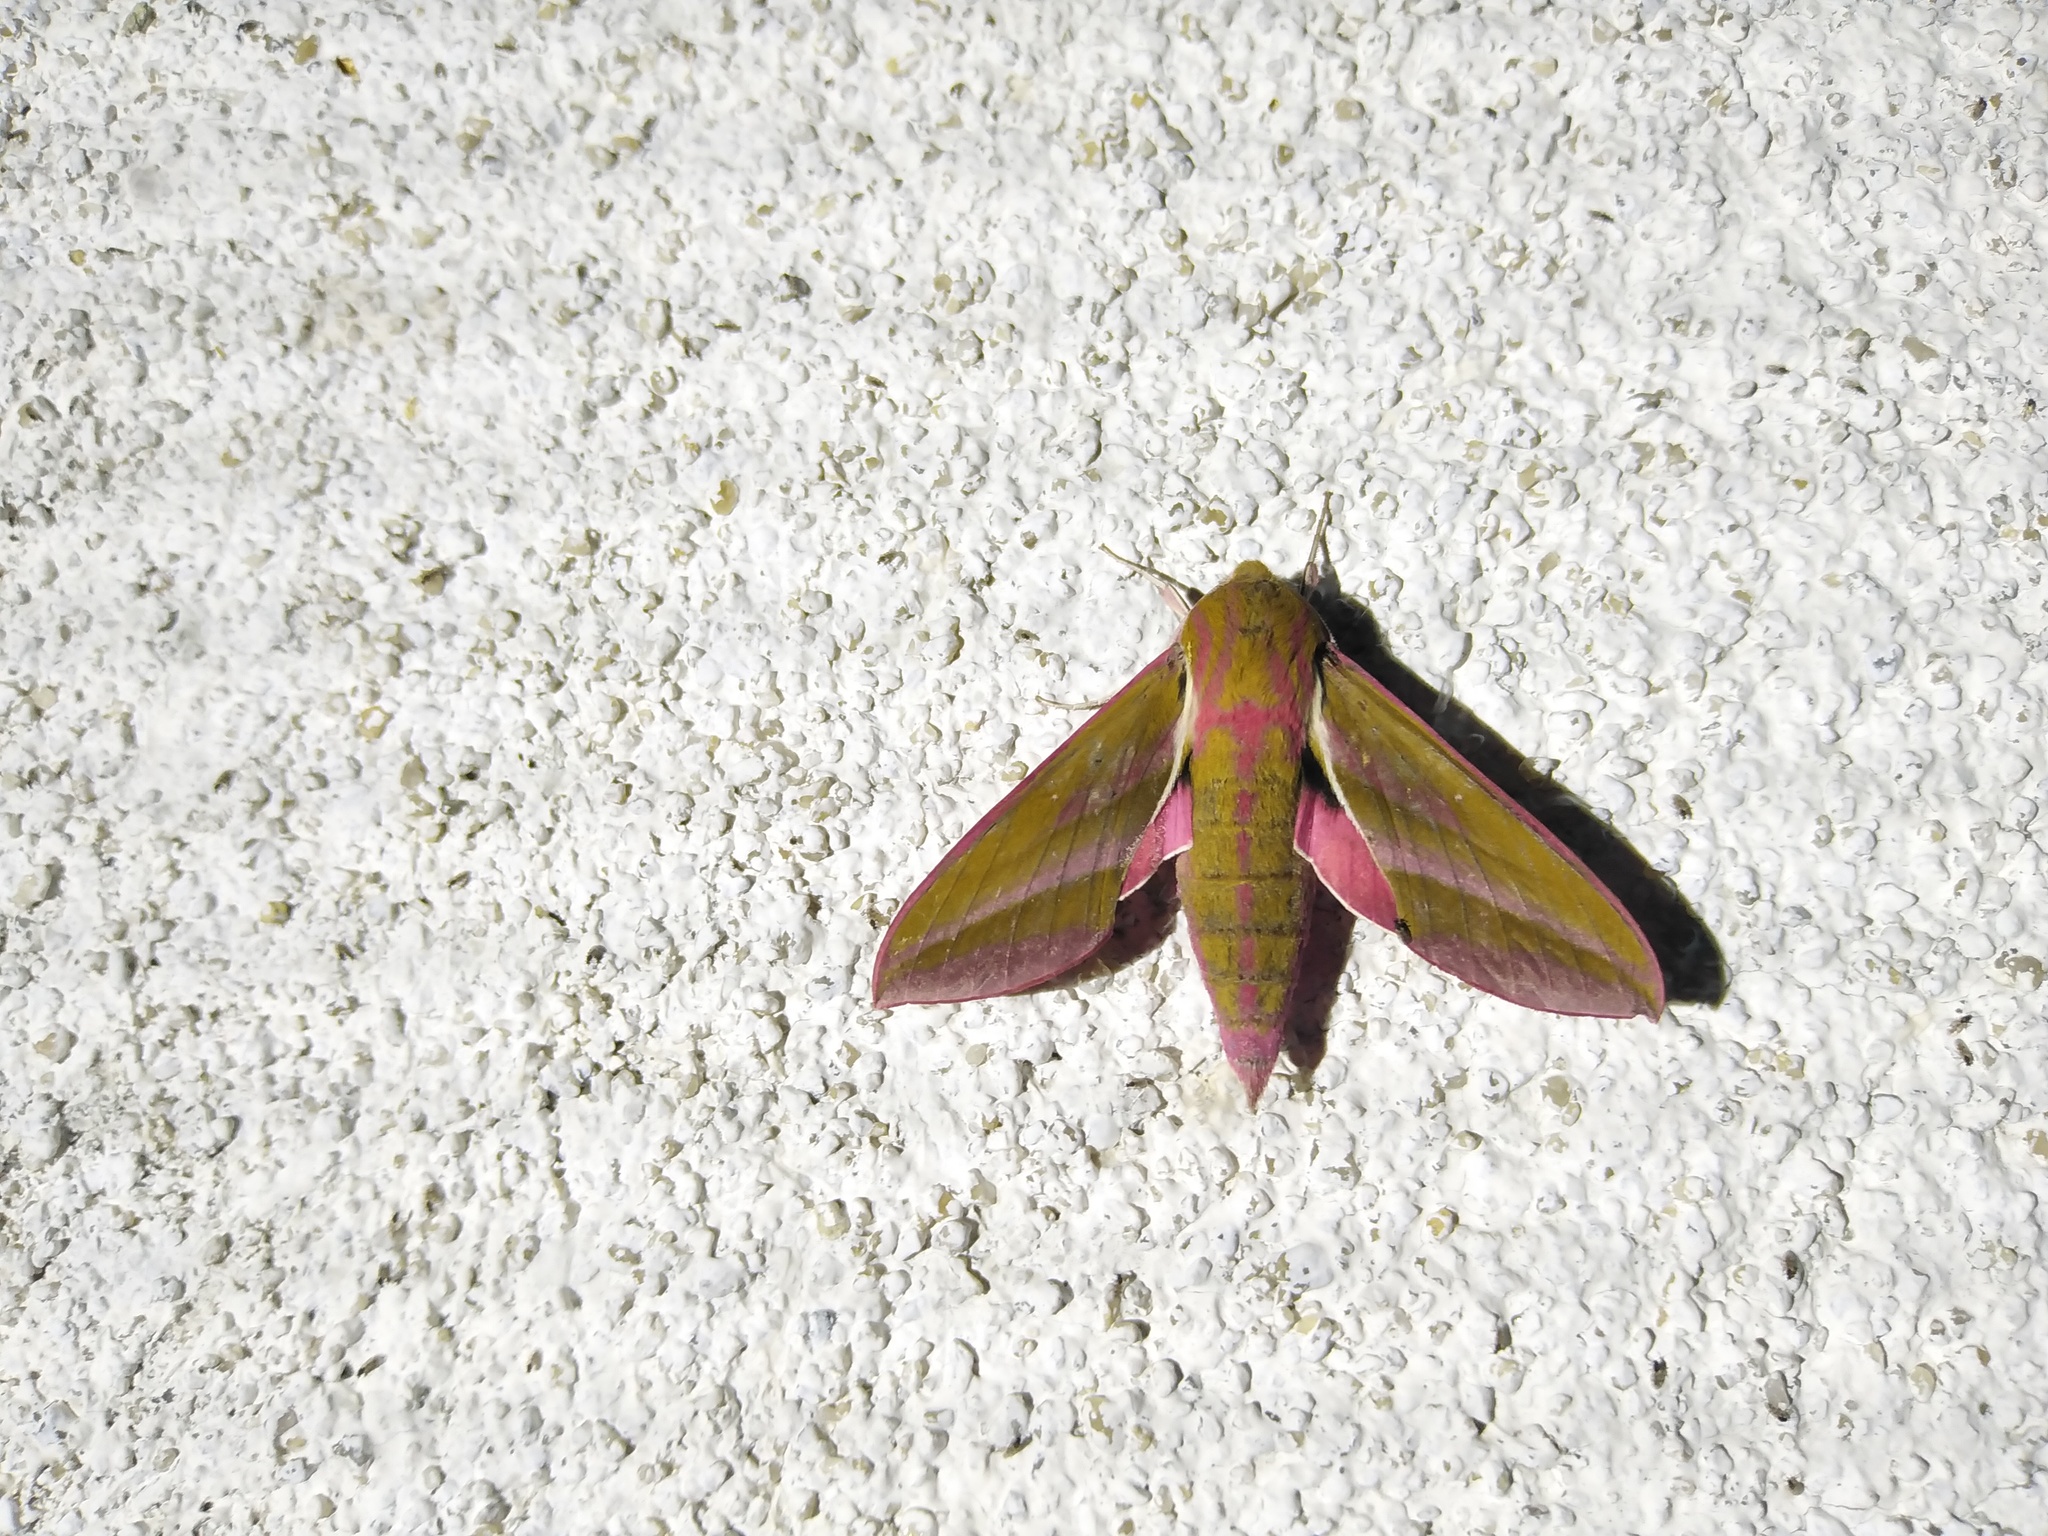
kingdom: Animalia
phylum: Arthropoda
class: Insecta
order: Lepidoptera
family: Sphingidae
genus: Deilephila
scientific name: Deilephila elpenor
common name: Elephant hawk-moth
